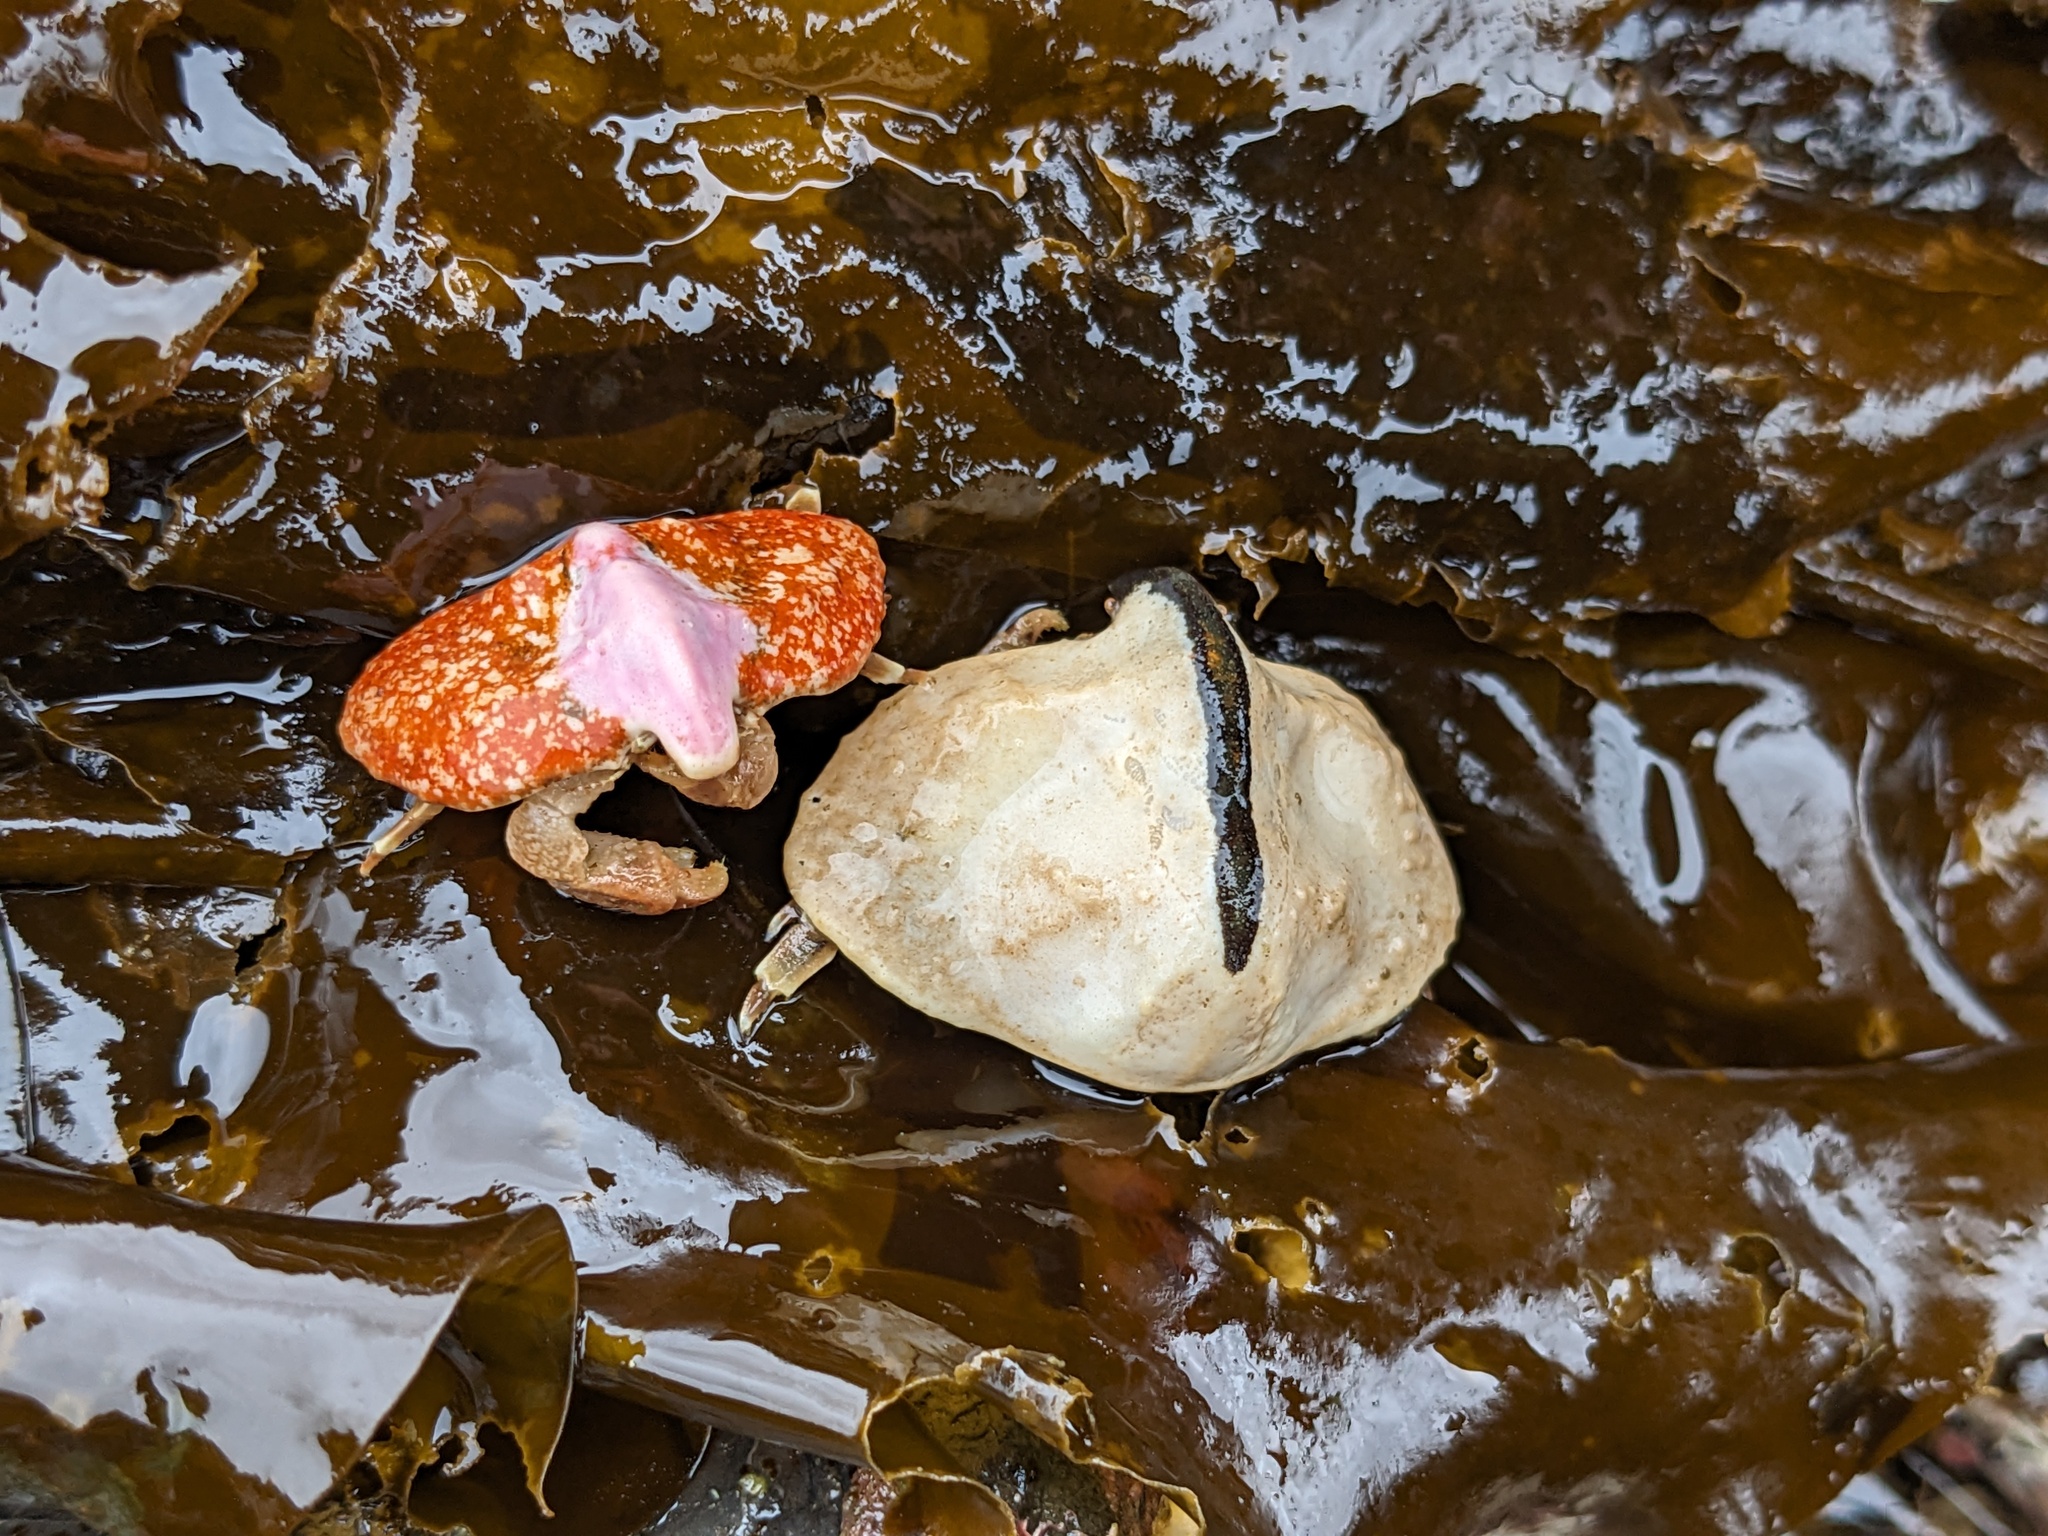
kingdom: Animalia
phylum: Arthropoda
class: Malacostraca
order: Decapoda
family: Lithodidae
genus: Cryptolithodes
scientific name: Cryptolithodes typicus
